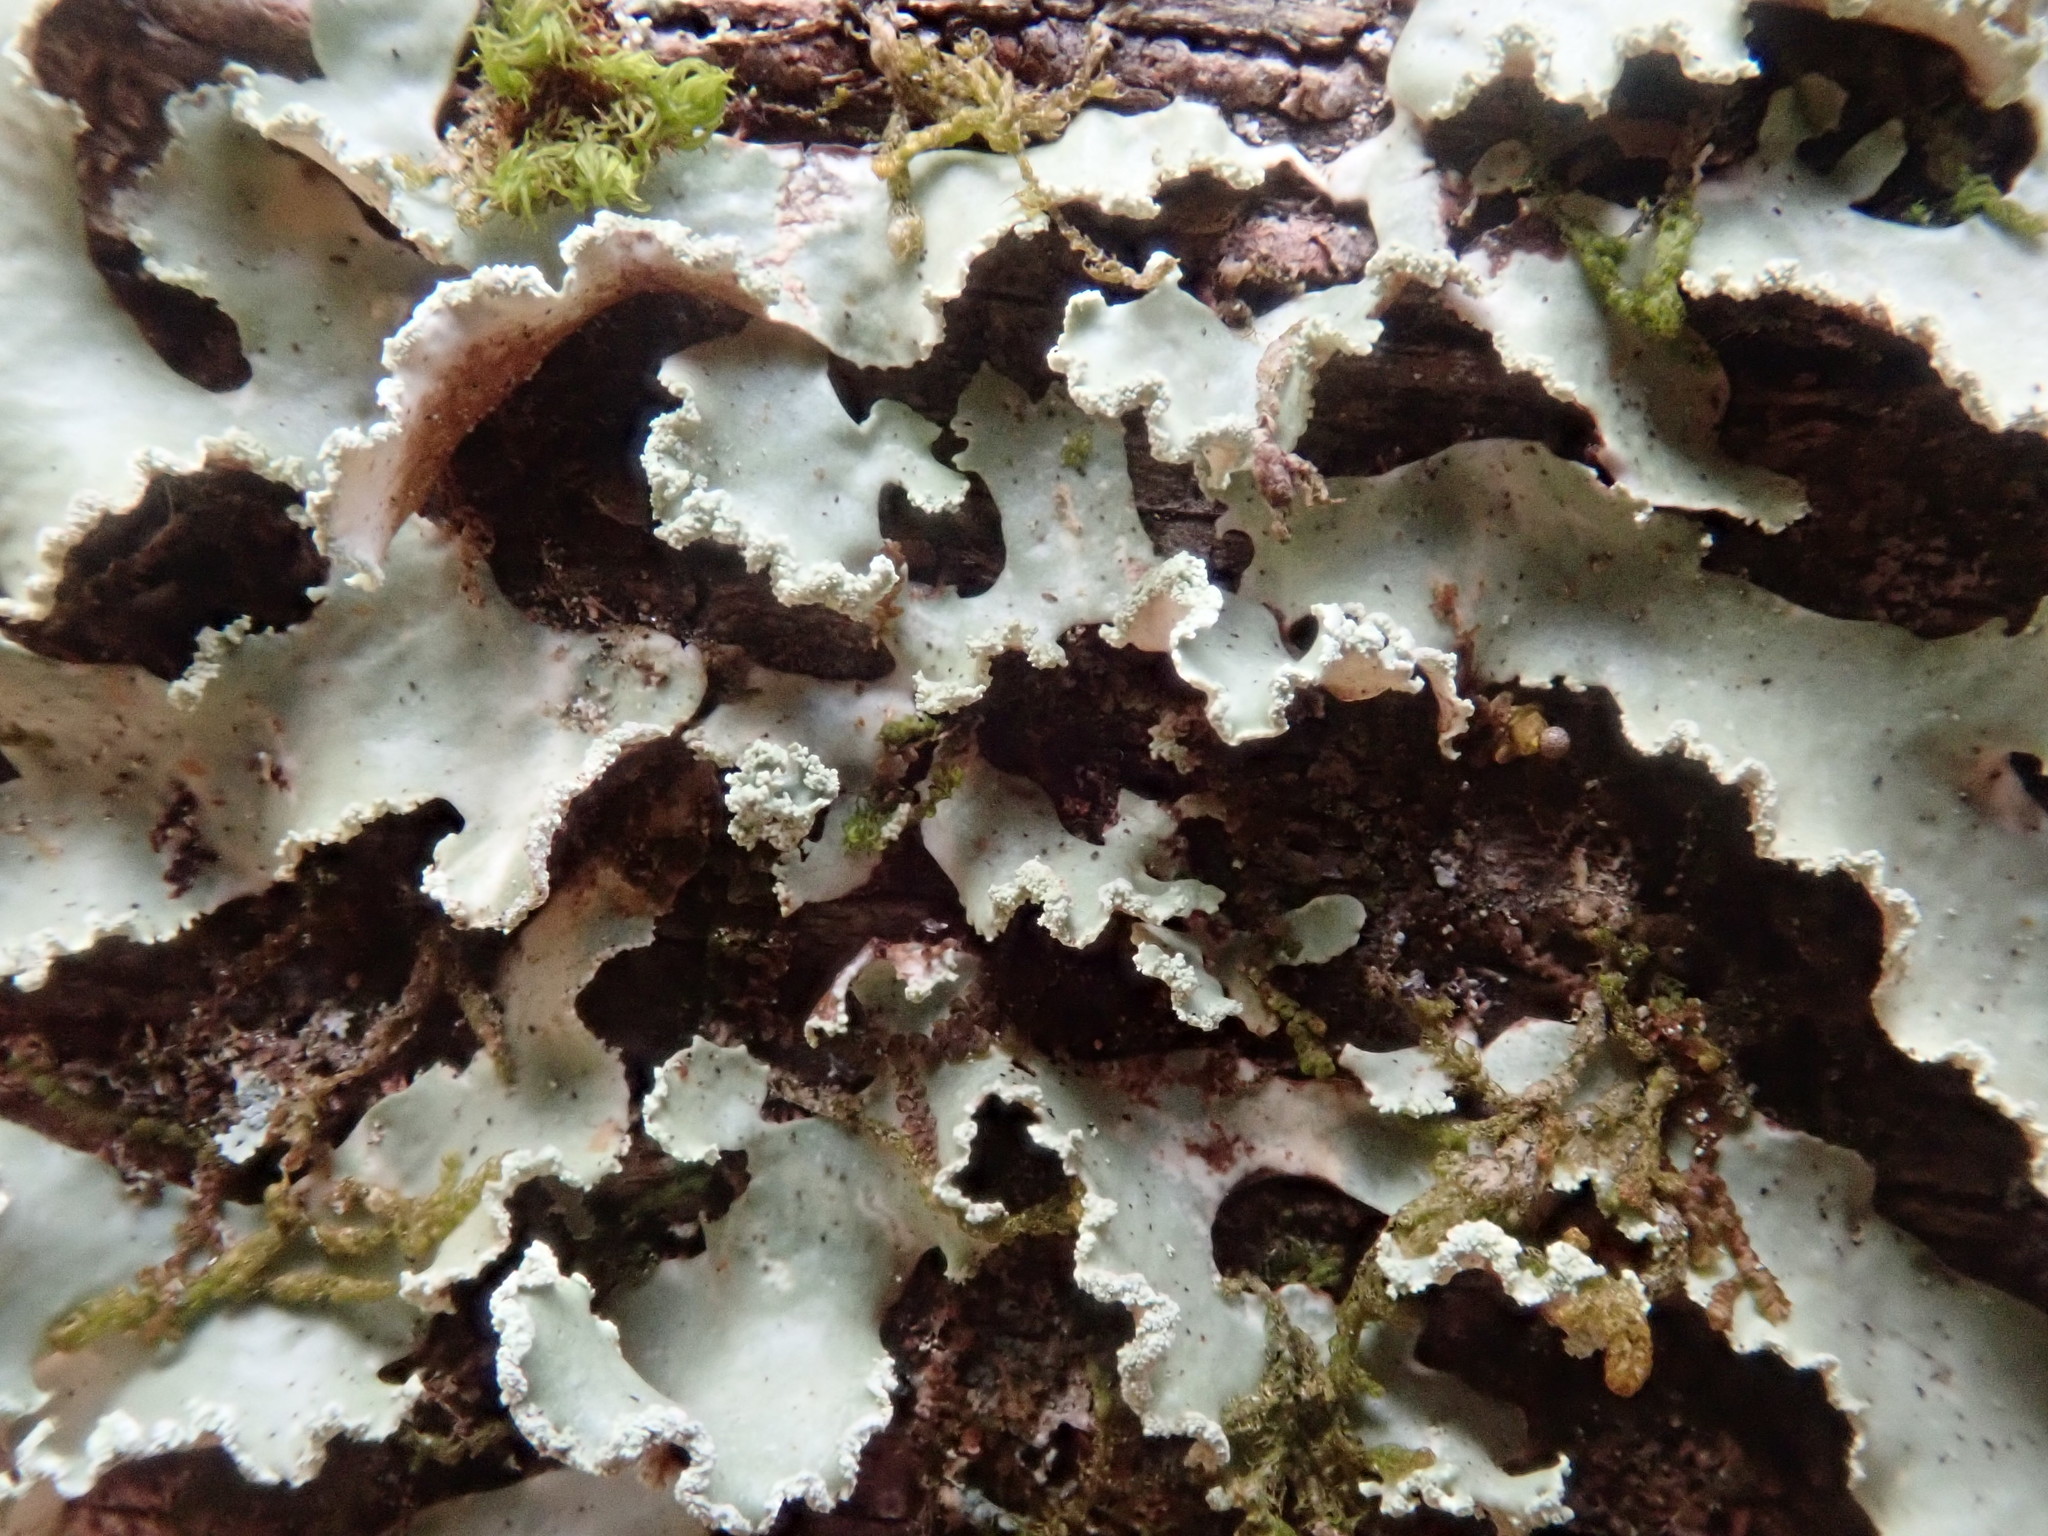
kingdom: Fungi
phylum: Ascomycota
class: Lecanoromycetes
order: Lecanorales
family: Parmeliaceae
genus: Usnocetraria
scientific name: Usnocetraria oakesiana
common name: Yellow ribbon lichen
